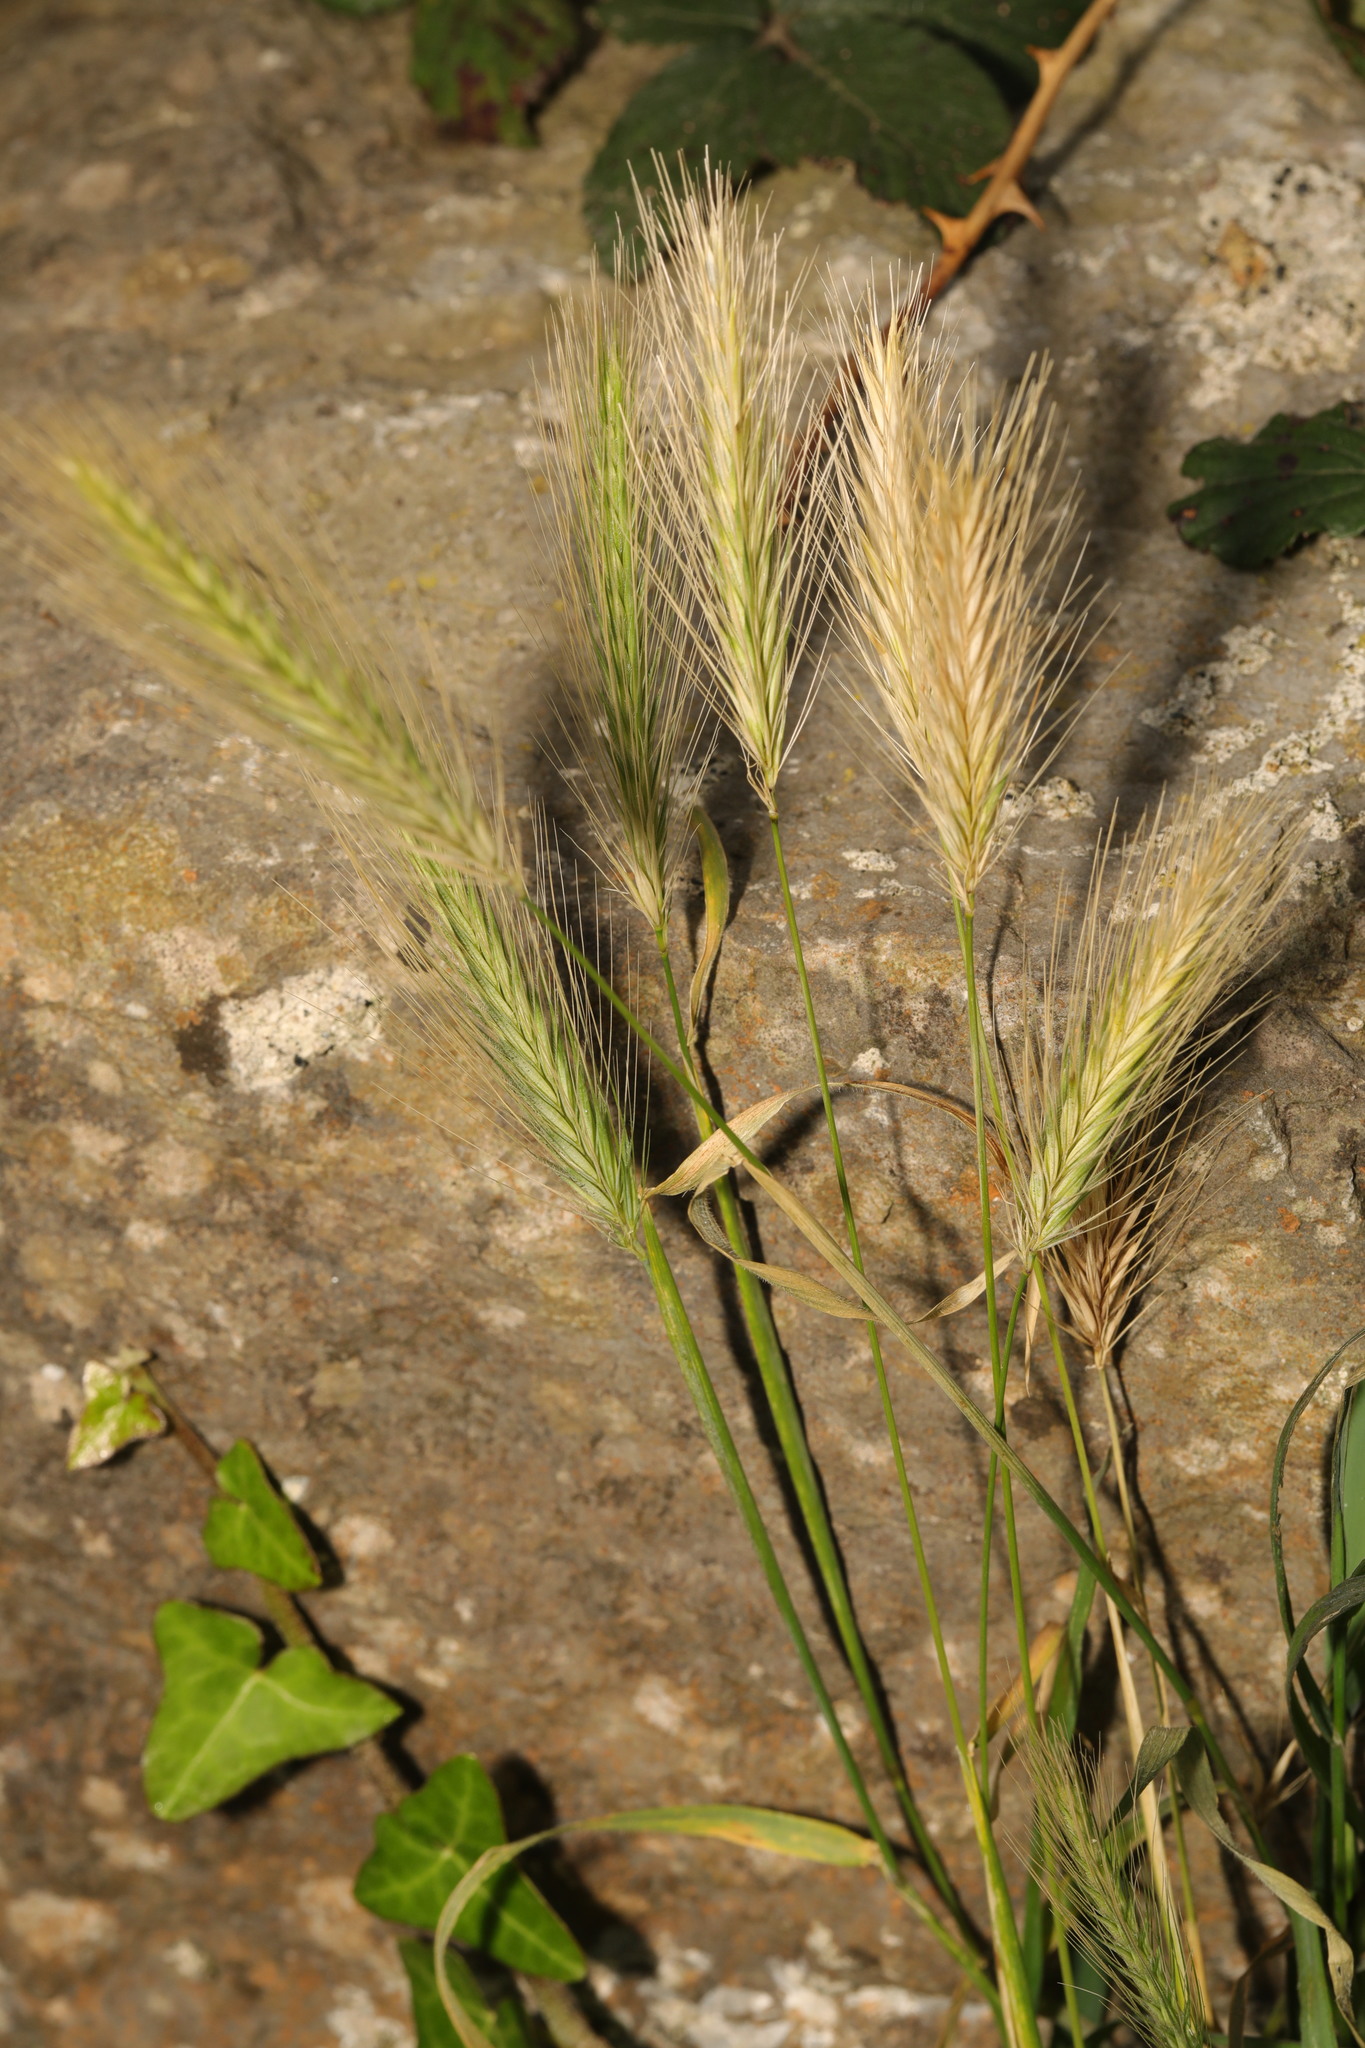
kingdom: Plantae
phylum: Tracheophyta
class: Liliopsida
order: Poales
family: Poaceae
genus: Hordeum
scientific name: Hordeum murinum
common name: Wall barley
